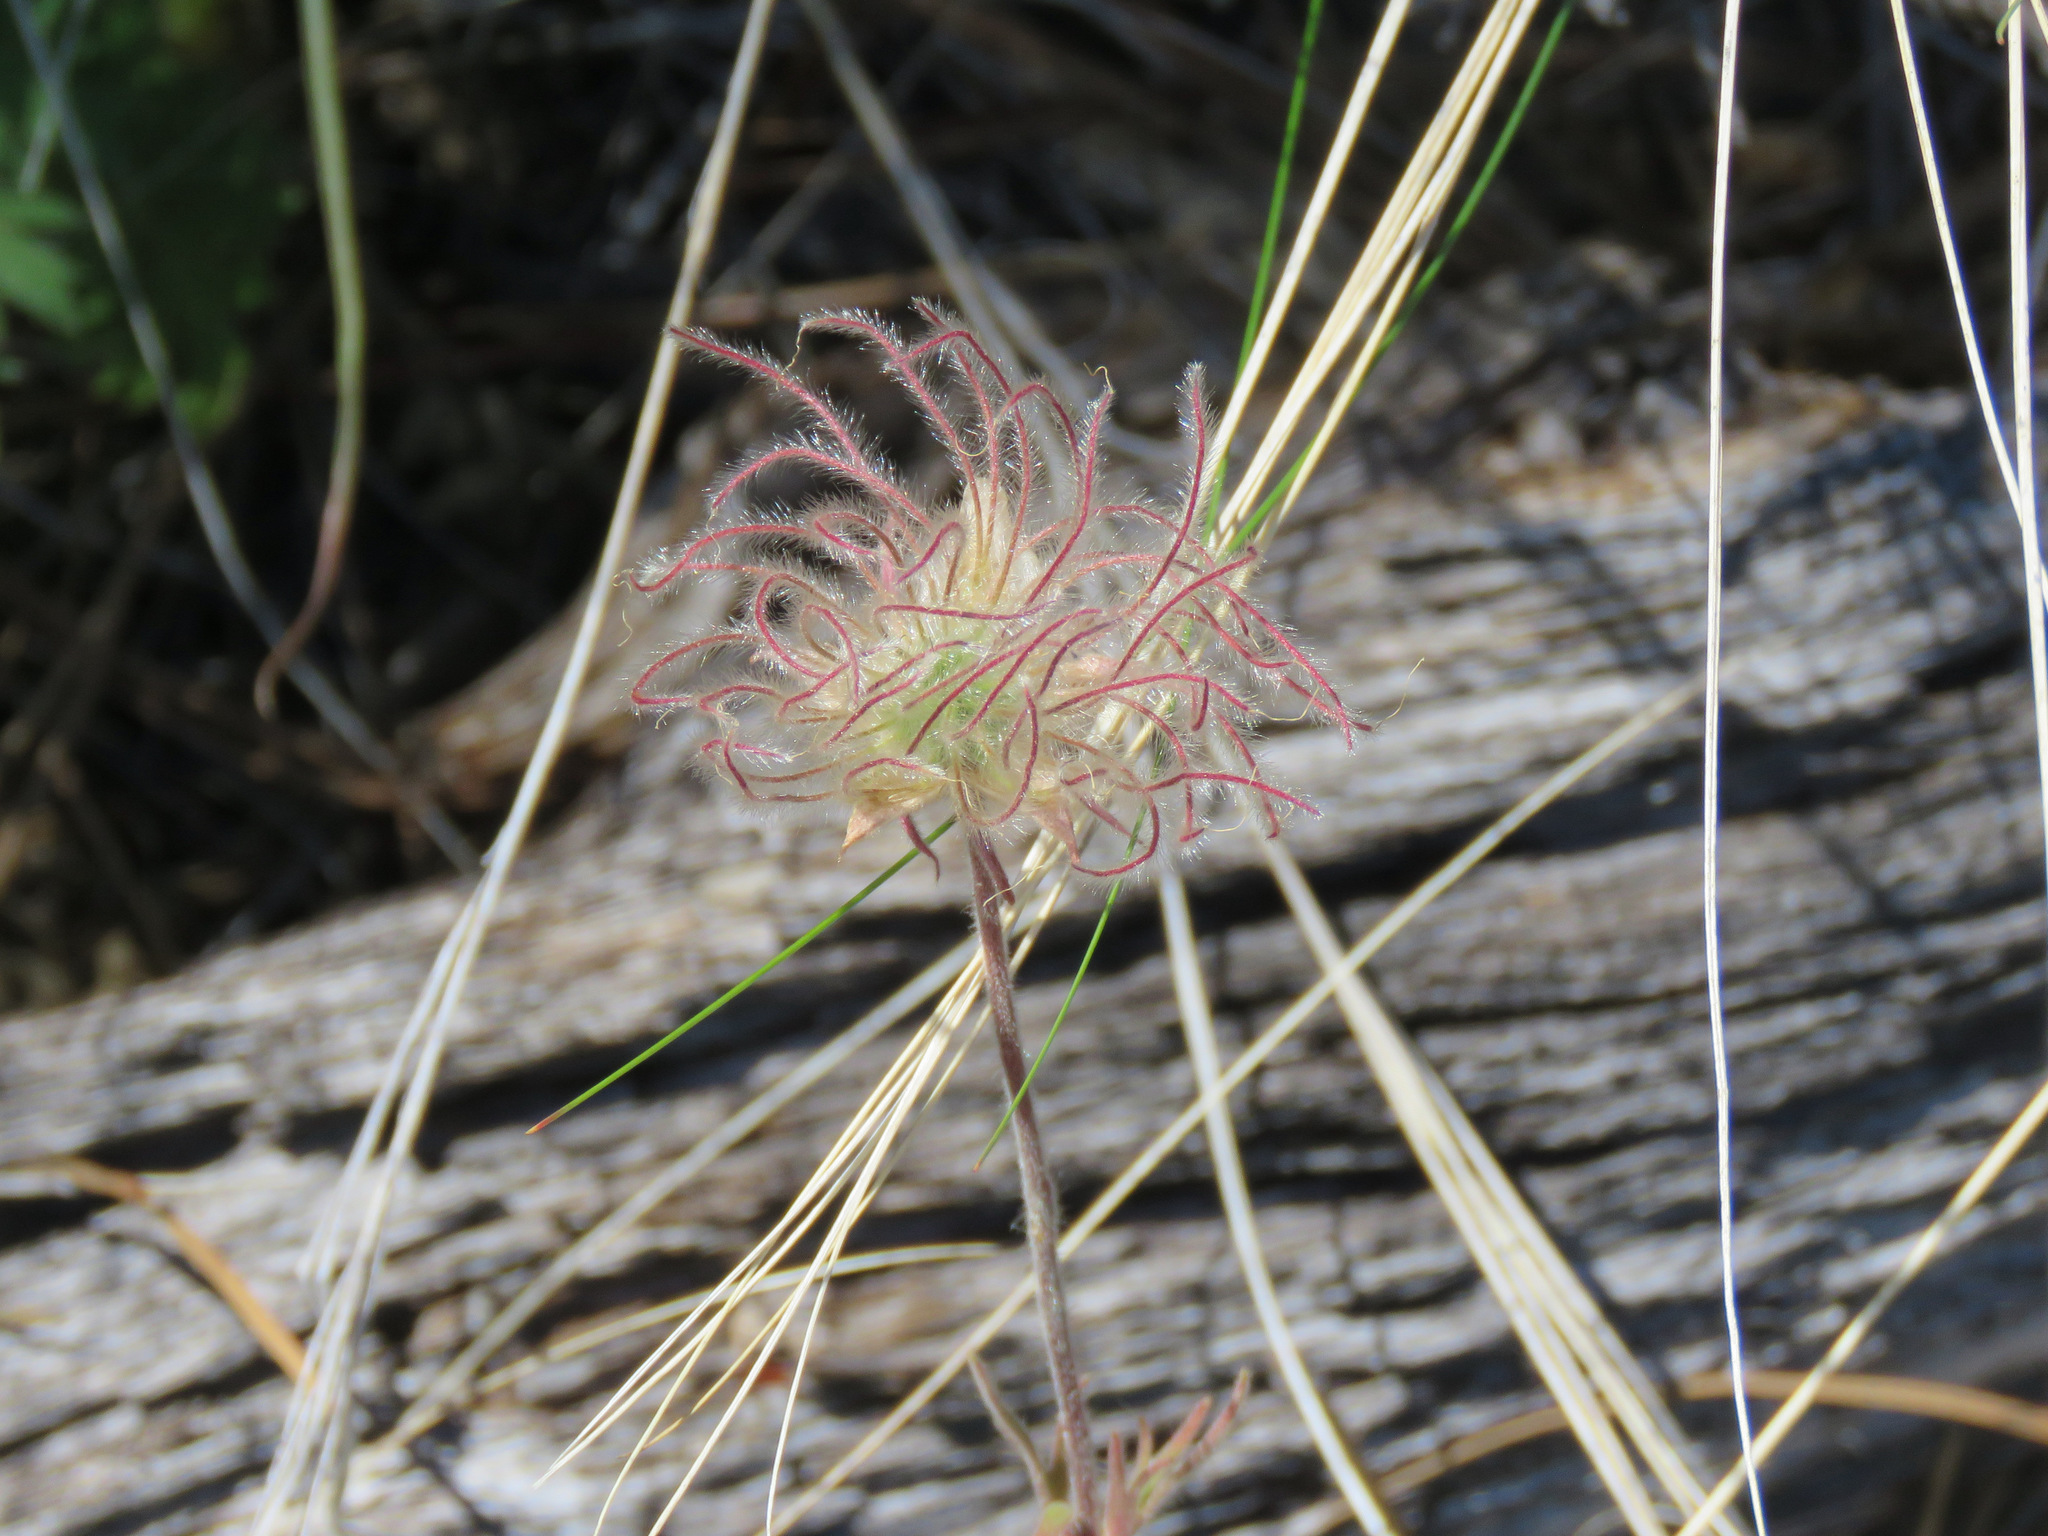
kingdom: Plantae
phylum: Tracheophyta
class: Magnoliopsida
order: Rosales
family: Rosaceae
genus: Geum
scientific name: Geum triflorum
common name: Old man's whiskers
